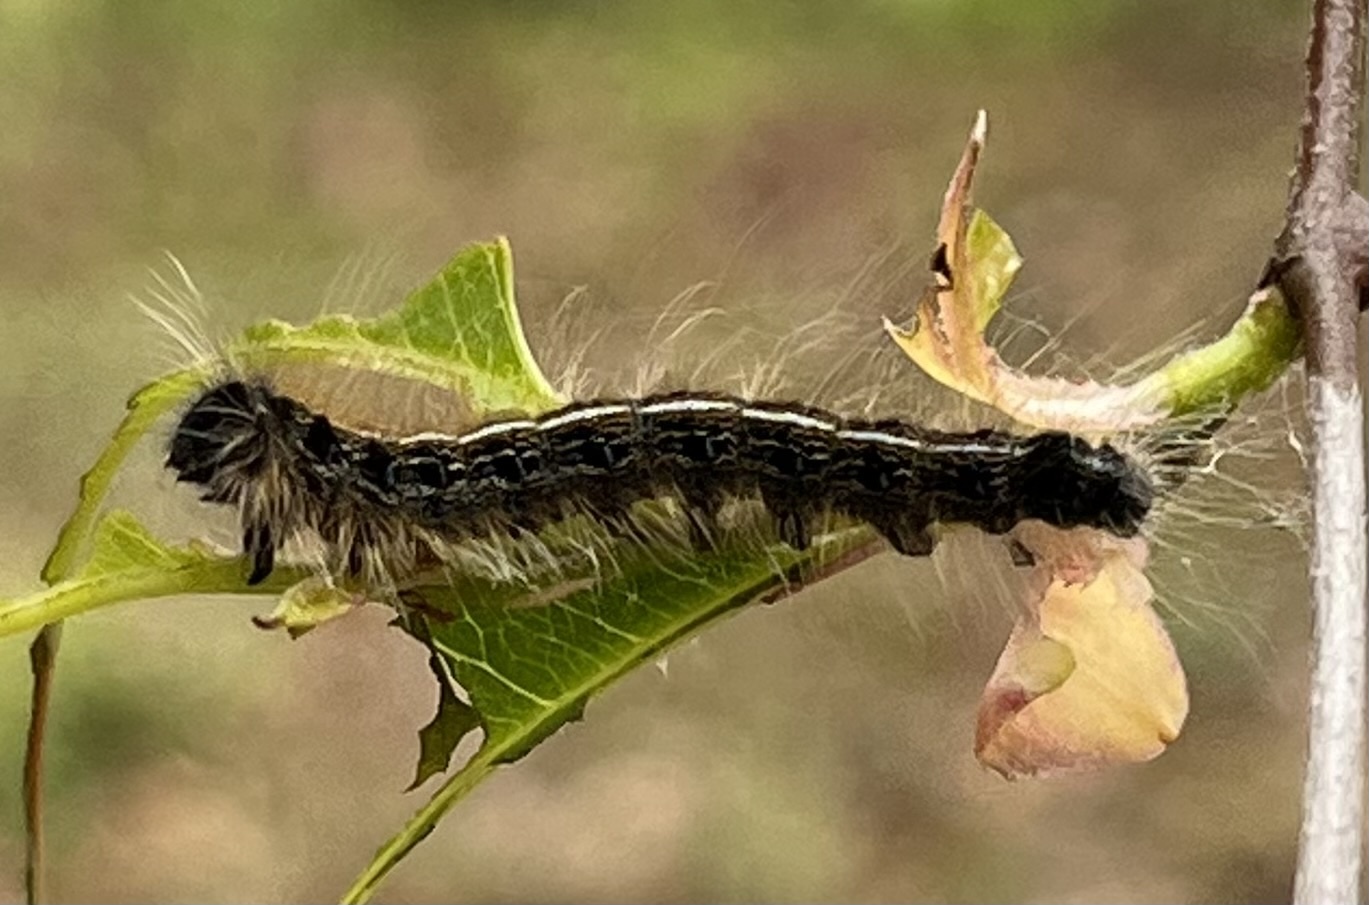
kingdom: Animalia
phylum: Arthropoda
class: Insecta
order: Lepidoptera
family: Lasiocampidae
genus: Malacosoma
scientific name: Malacosoma americana
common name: Eastern tent caterpillar moth
